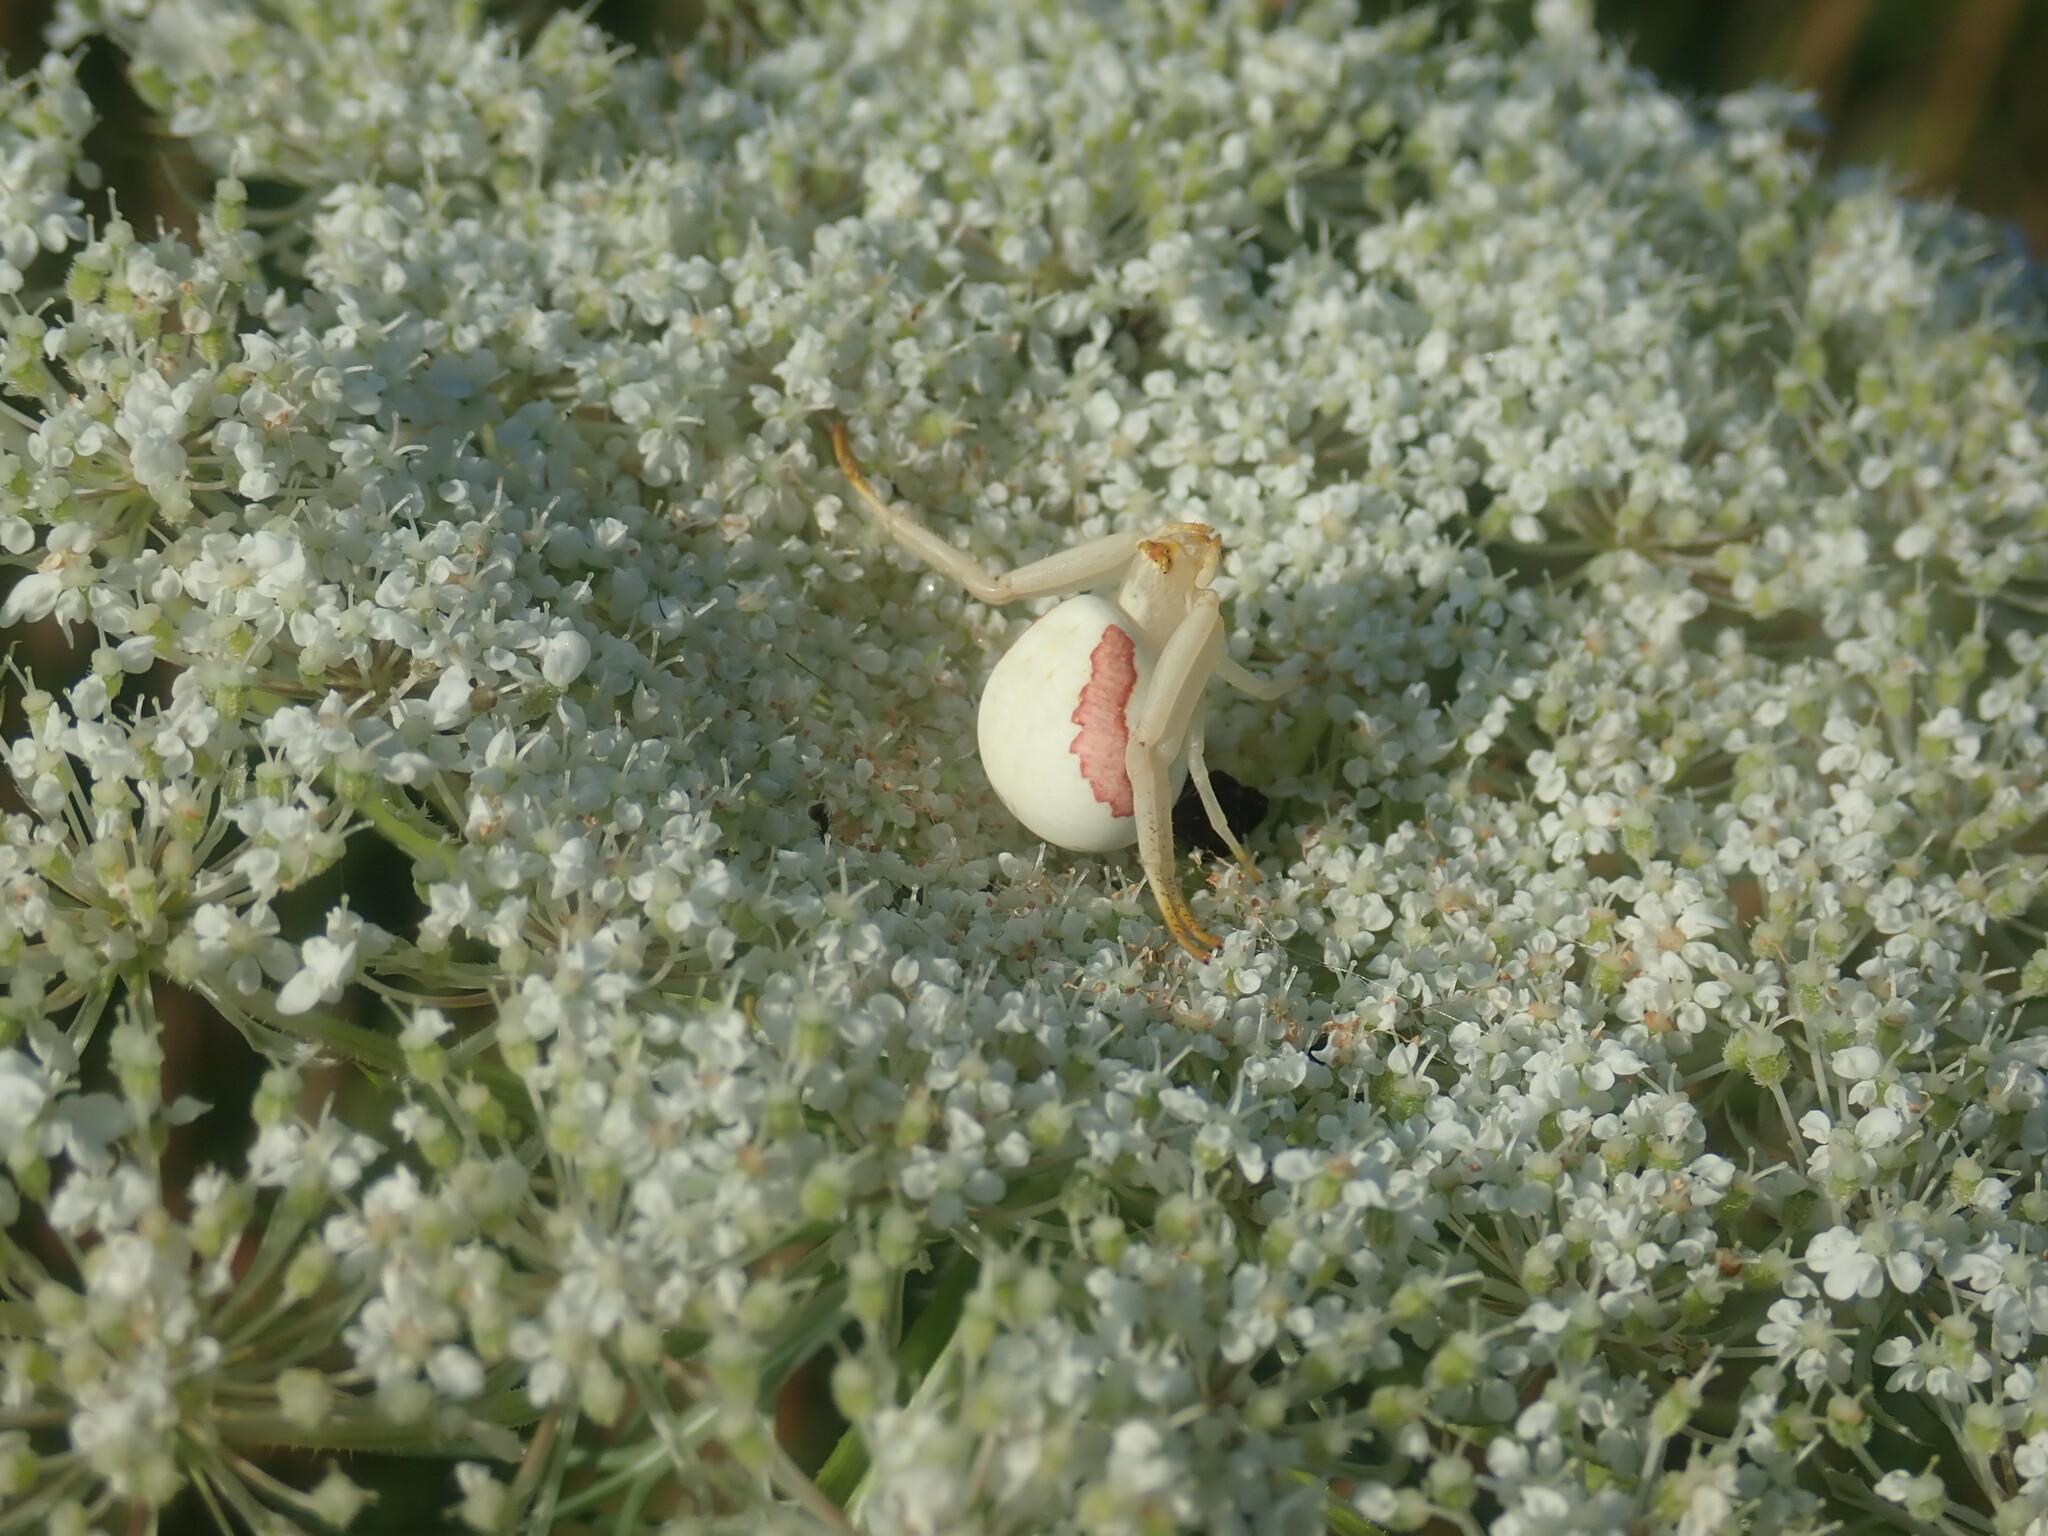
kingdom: Animalia
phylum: Arthropoda
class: Arachnida
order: Araneae
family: Thomisidae
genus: Misumena
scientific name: Misumena vatia
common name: Goldenrod crab spider
